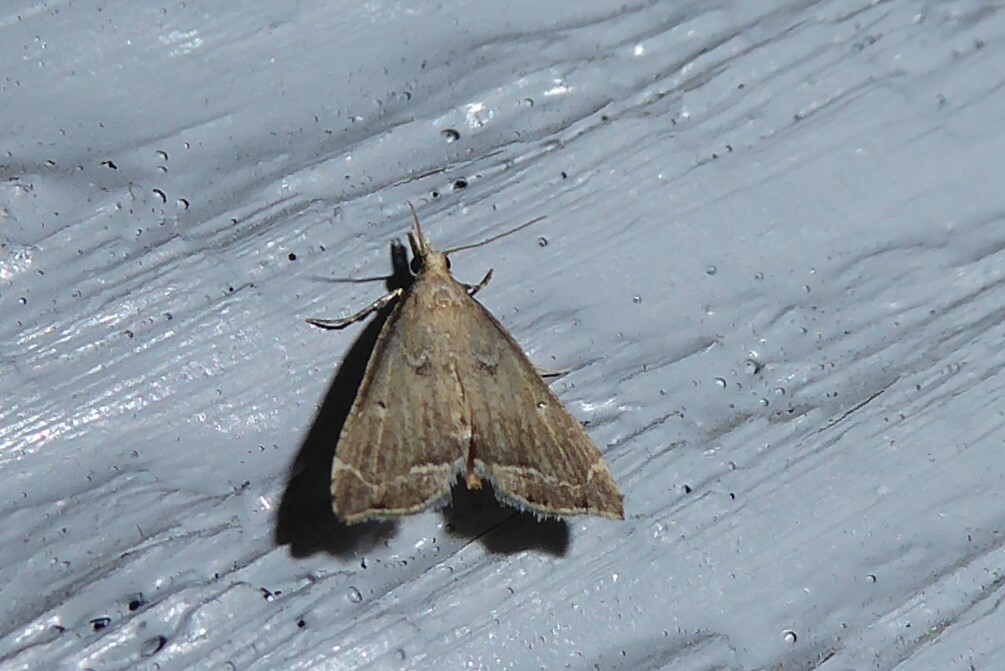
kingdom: Animalia
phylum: Arthropoda
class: Insecta
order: Lepidoptera
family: Crambidae
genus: Diplopseustis
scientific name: Diplopseustis perieresalis
